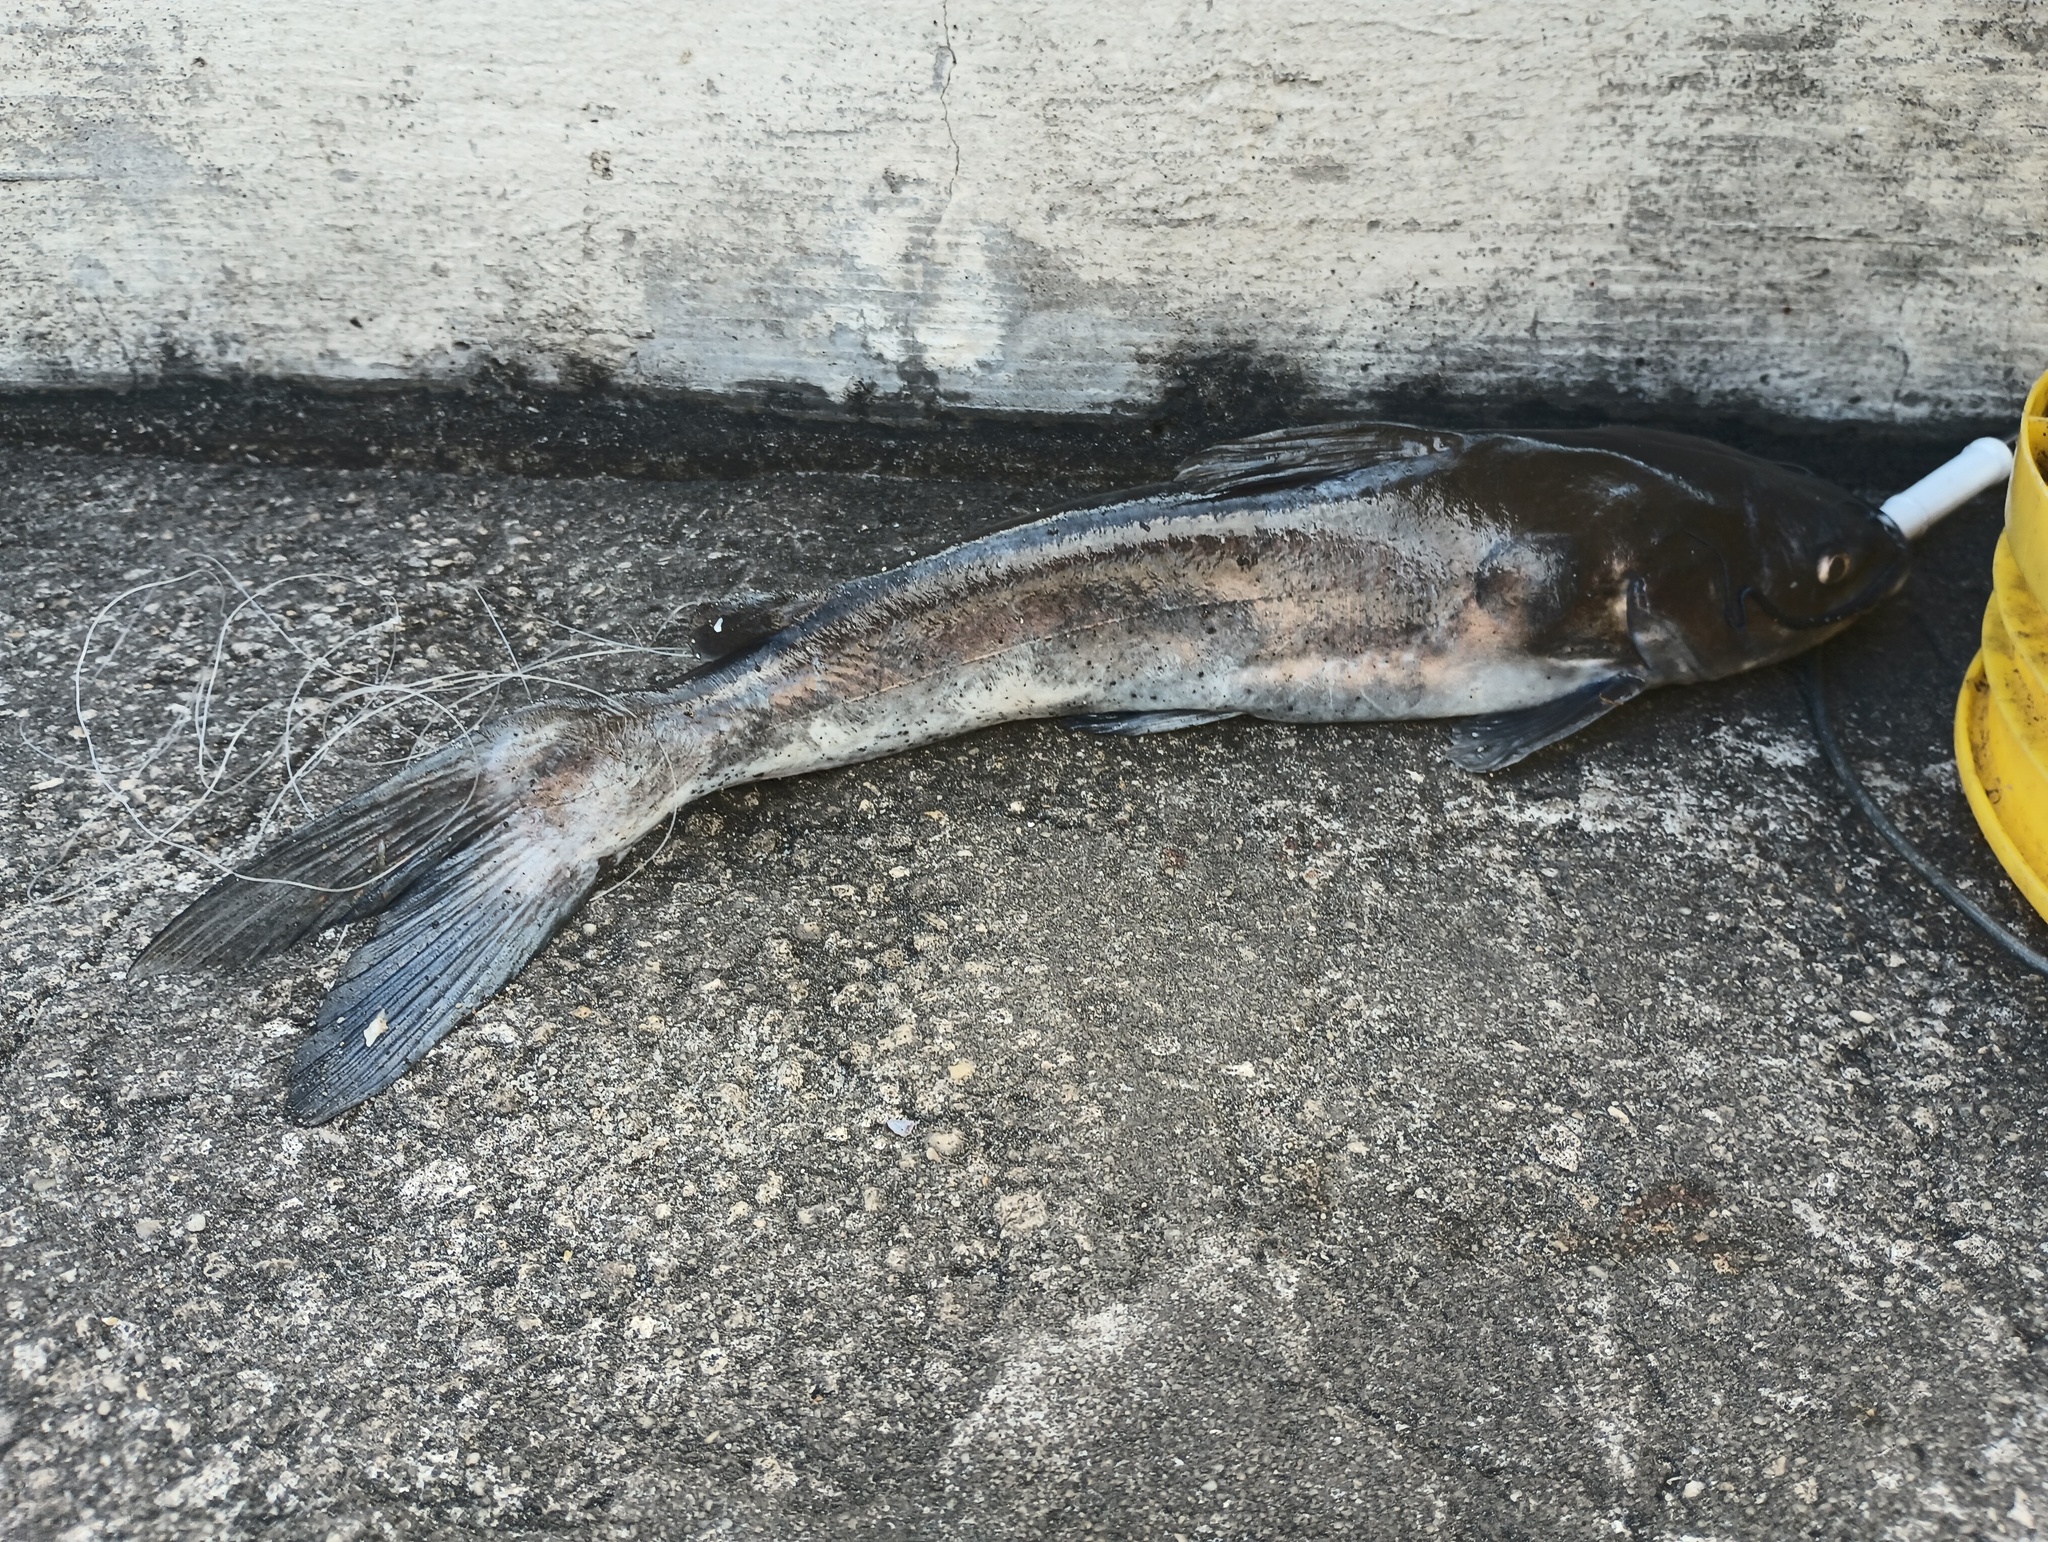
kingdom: Animalia
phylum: Chordata
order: Siluriformes
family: Ictaluridae
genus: Ictalurus
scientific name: Ictalurus punctatus
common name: Channel catfish
